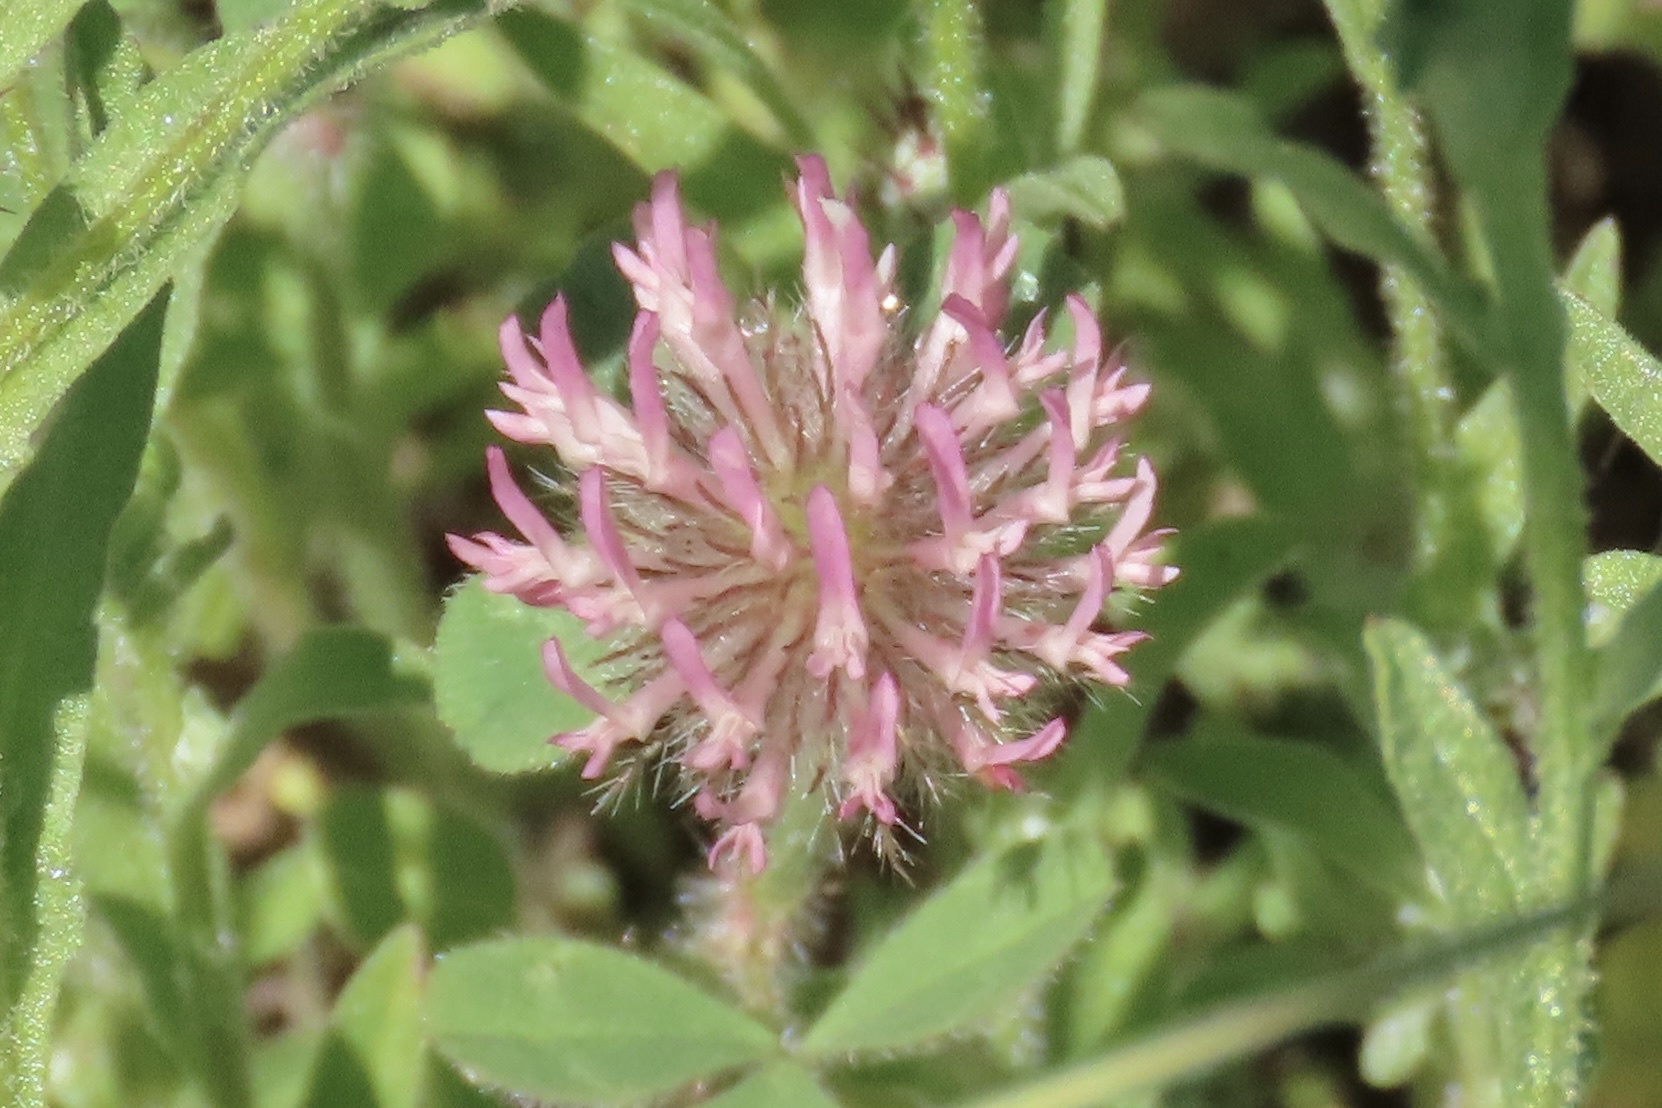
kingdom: Plantae
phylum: Tracheophyta
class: Magnoliopsida
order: Fabales
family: Fabaceae
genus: Trifolium
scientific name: Trifolium hirtum
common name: Rose clover
